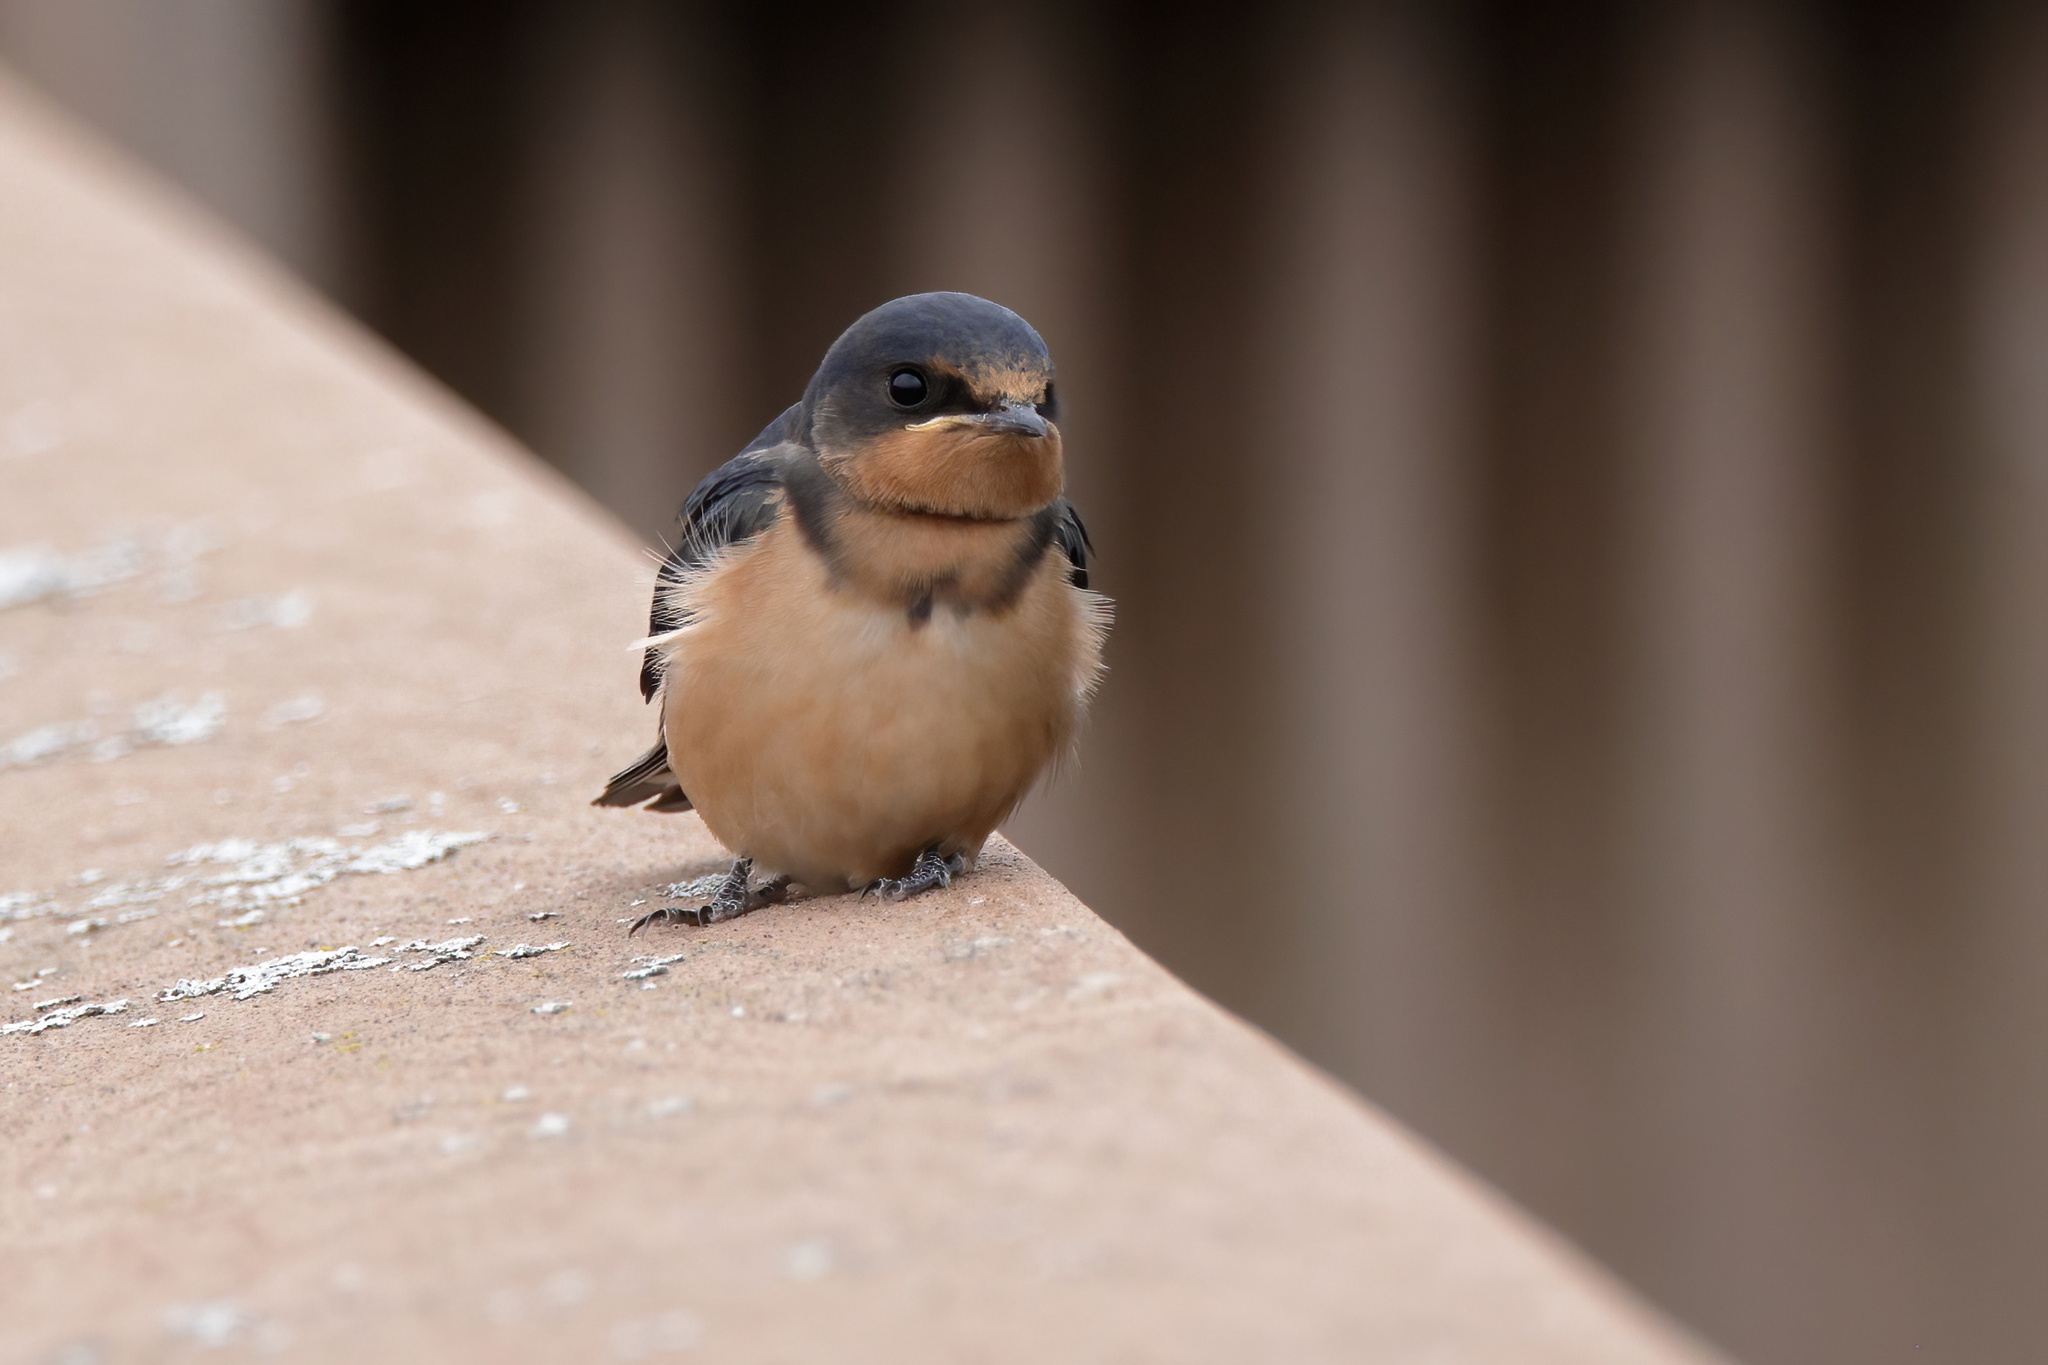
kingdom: Animalia
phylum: Chordata
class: Aves
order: Passeriformes
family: Hirundinidae
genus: Hirundo
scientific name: Hirundo rustica
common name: Barn swallow
